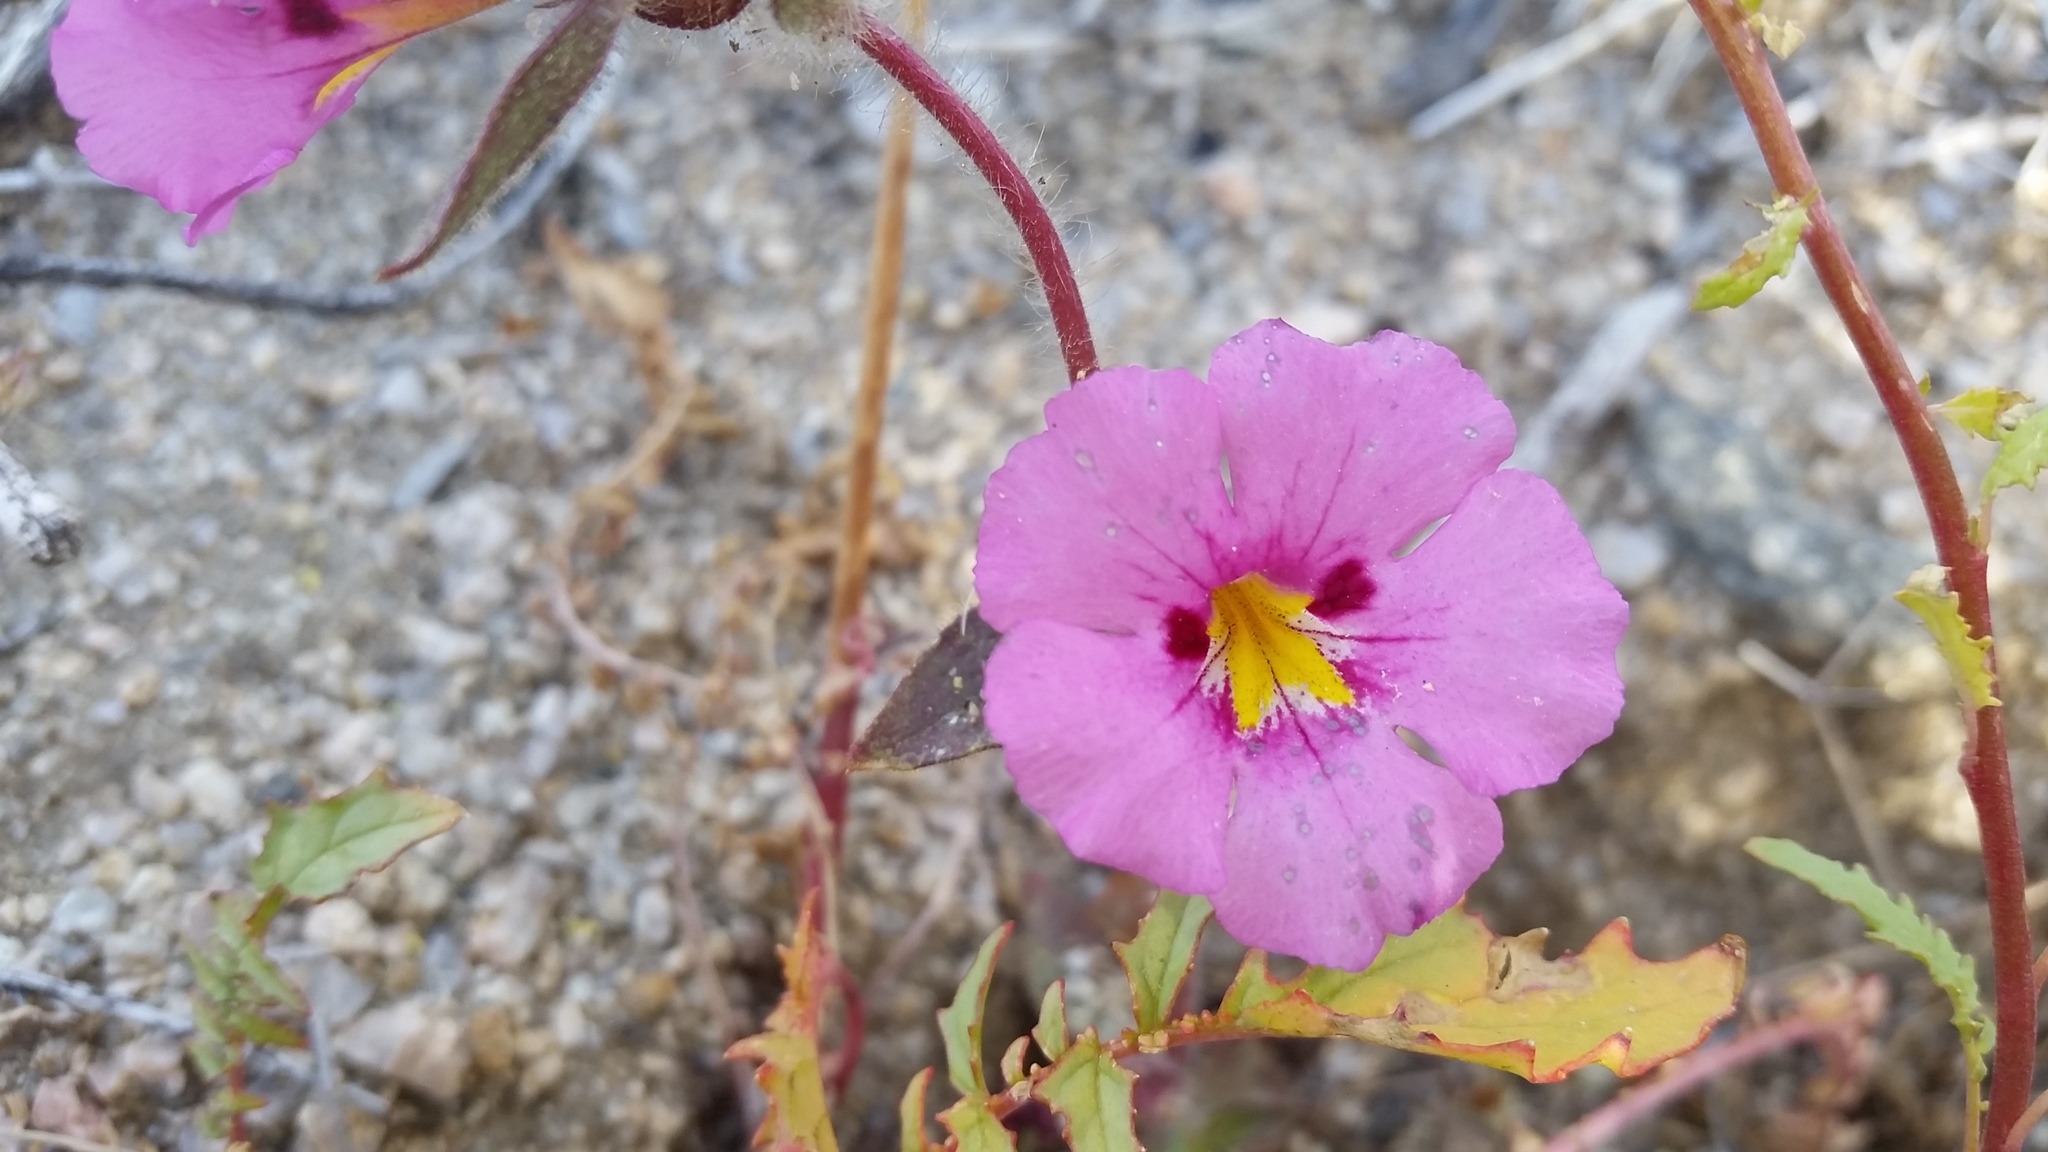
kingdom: Plantae
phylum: Tracheophyta
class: Magnoliopsida
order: Lamiales
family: Phrymaceae
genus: Diplacus
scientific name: Diplacus bigelovii
